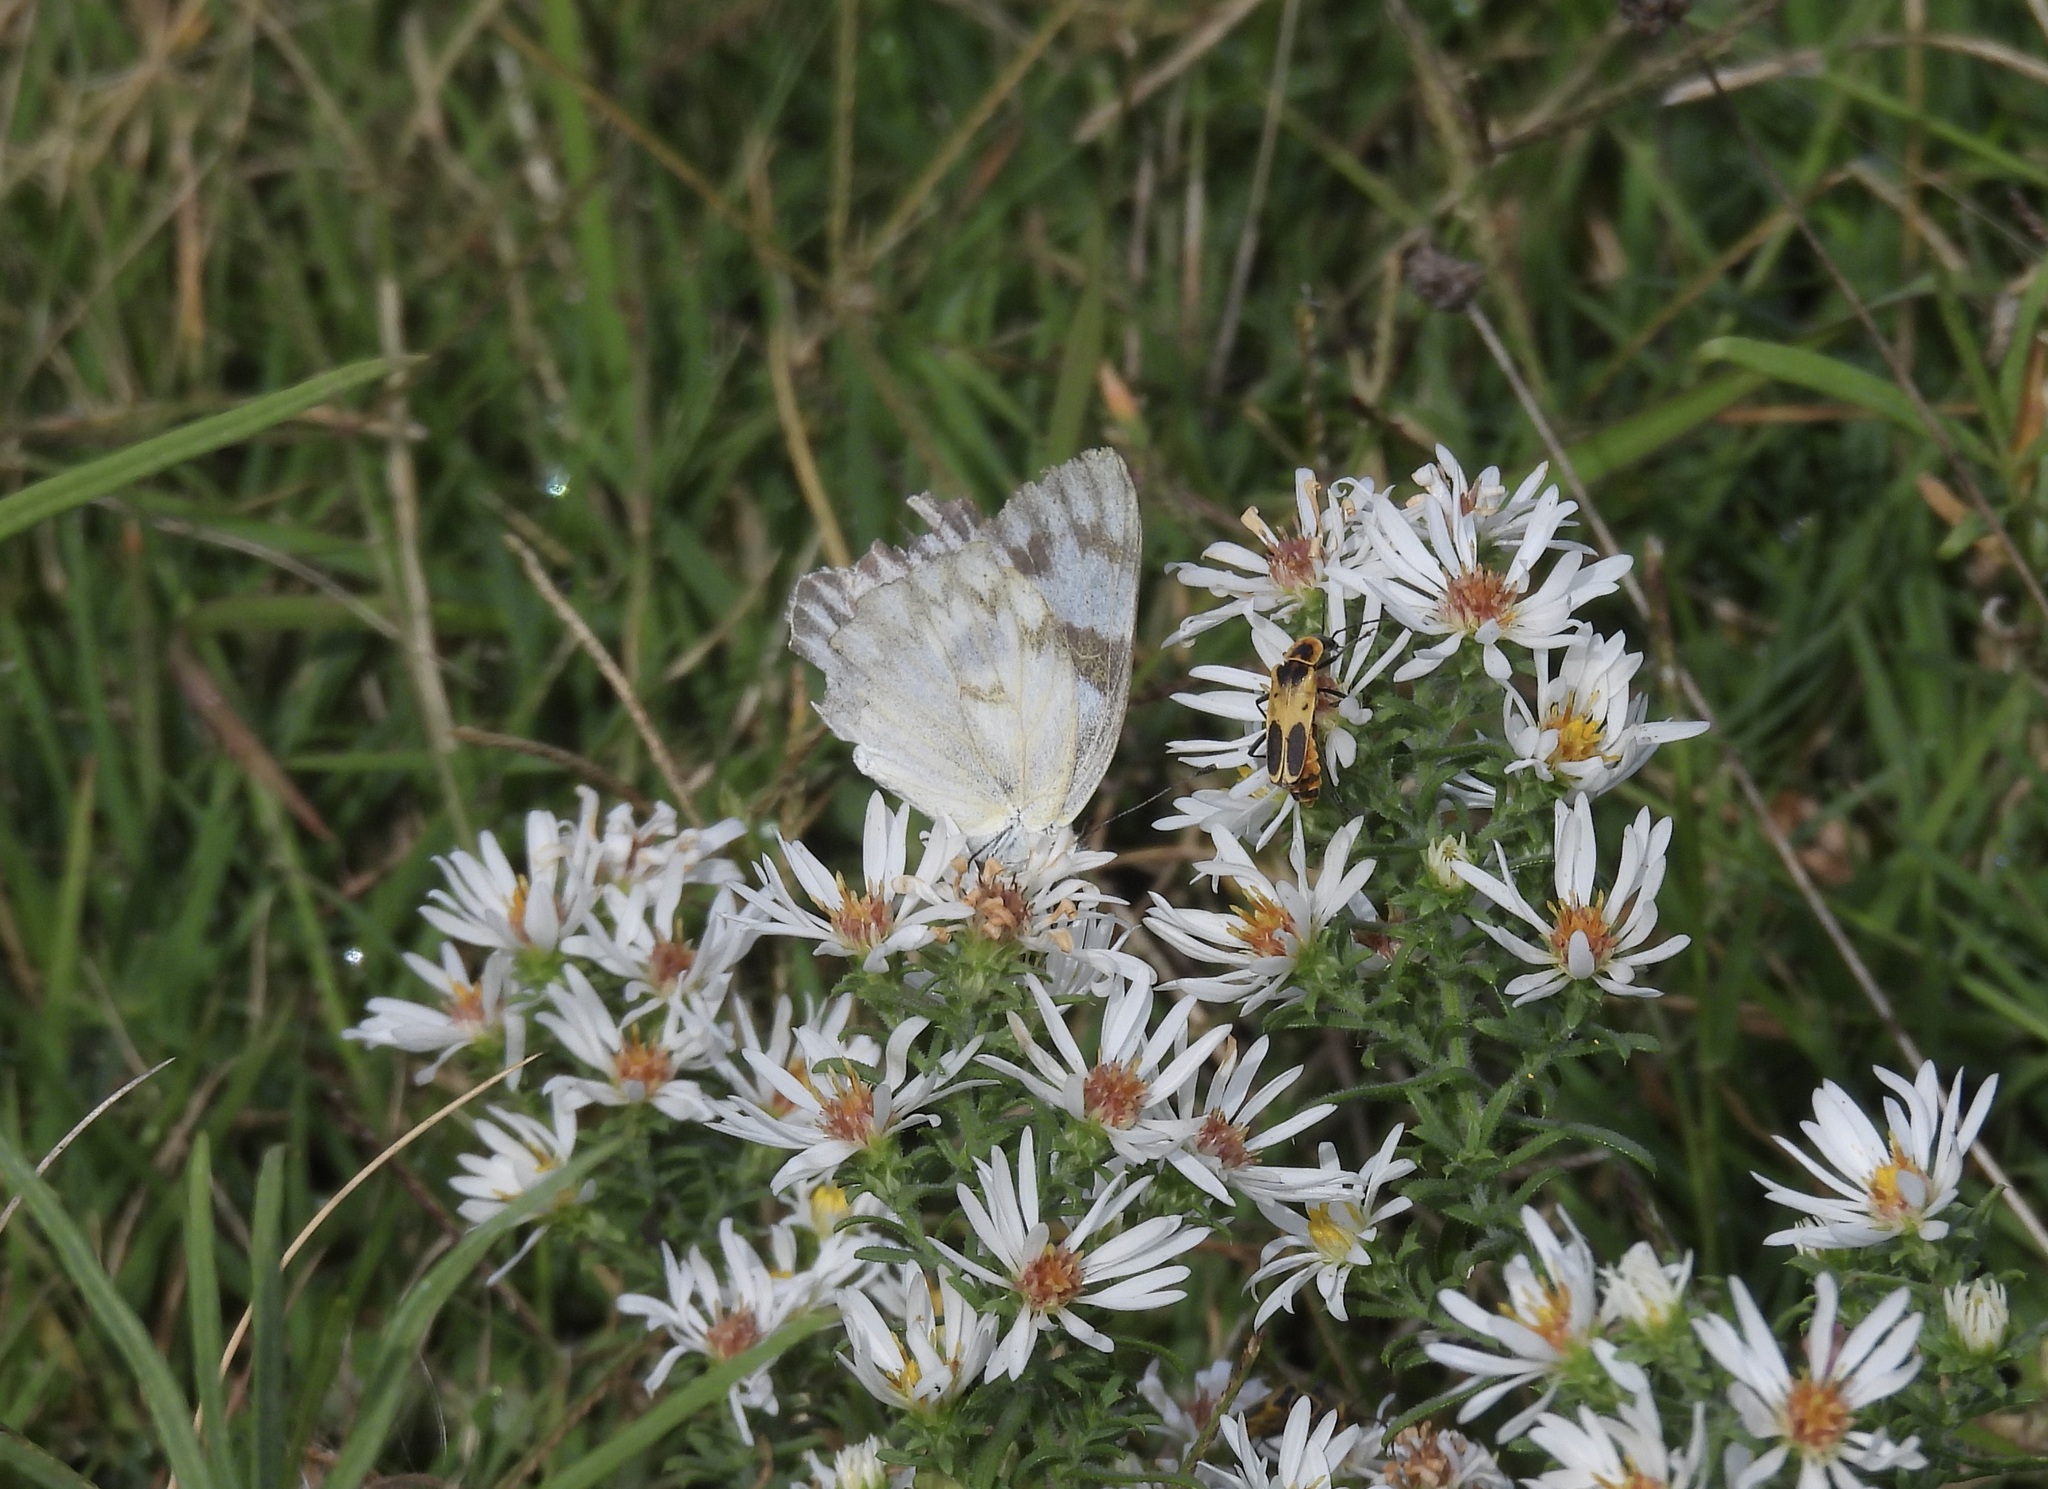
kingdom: Animalia
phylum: Arthropoda
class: Insecta
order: Lepidoptera
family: Pieridae
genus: Pontia
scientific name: Pontia protodice
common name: Checkered white
